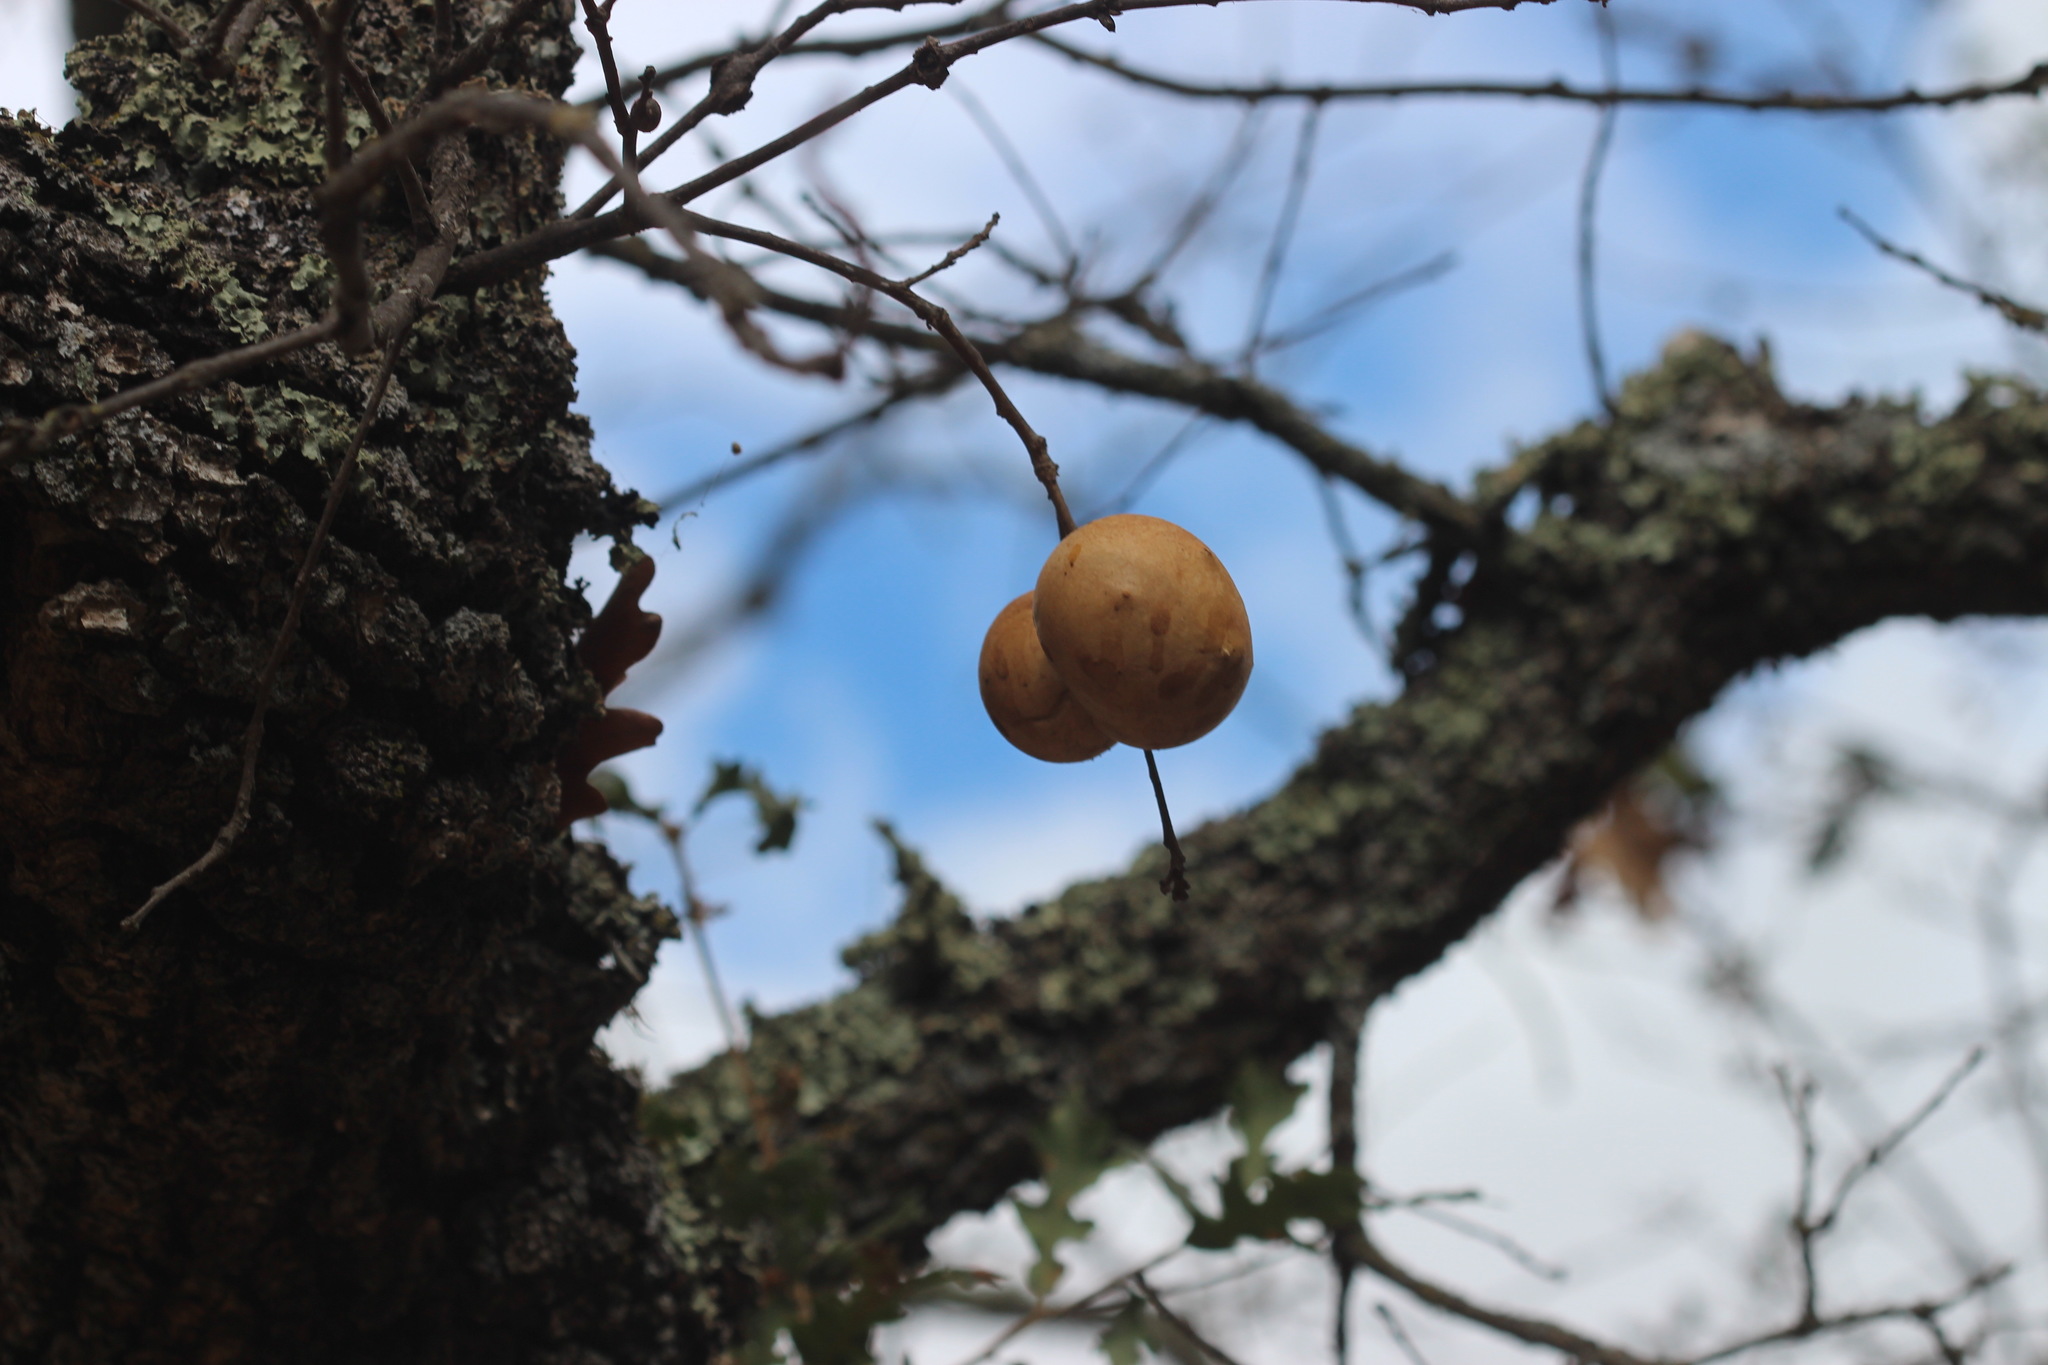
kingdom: Animalia
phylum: Arthropoda
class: Insecta
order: Hymenoptera
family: Cynipidae
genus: Andricus
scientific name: Andricus quercuscalifornicus
